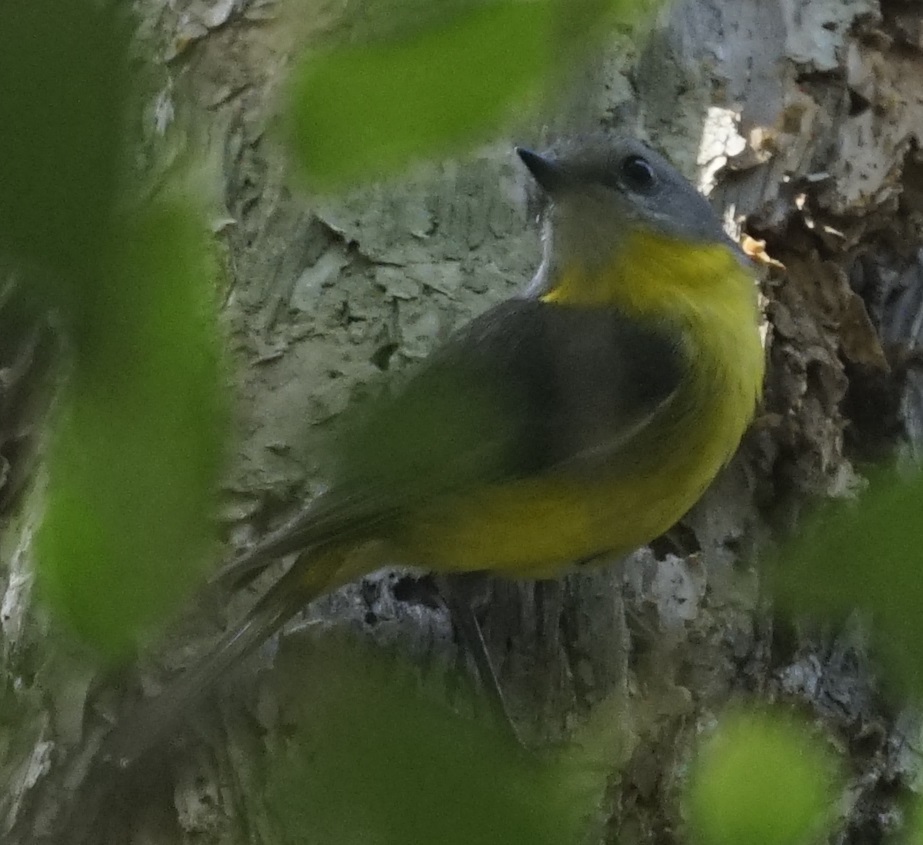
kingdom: Animalia
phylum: Chordata
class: Aves
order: Passeriformes
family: Petroicidae
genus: Eopsaltria
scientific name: Eopsaltria australis
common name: Eastern yellow robin
